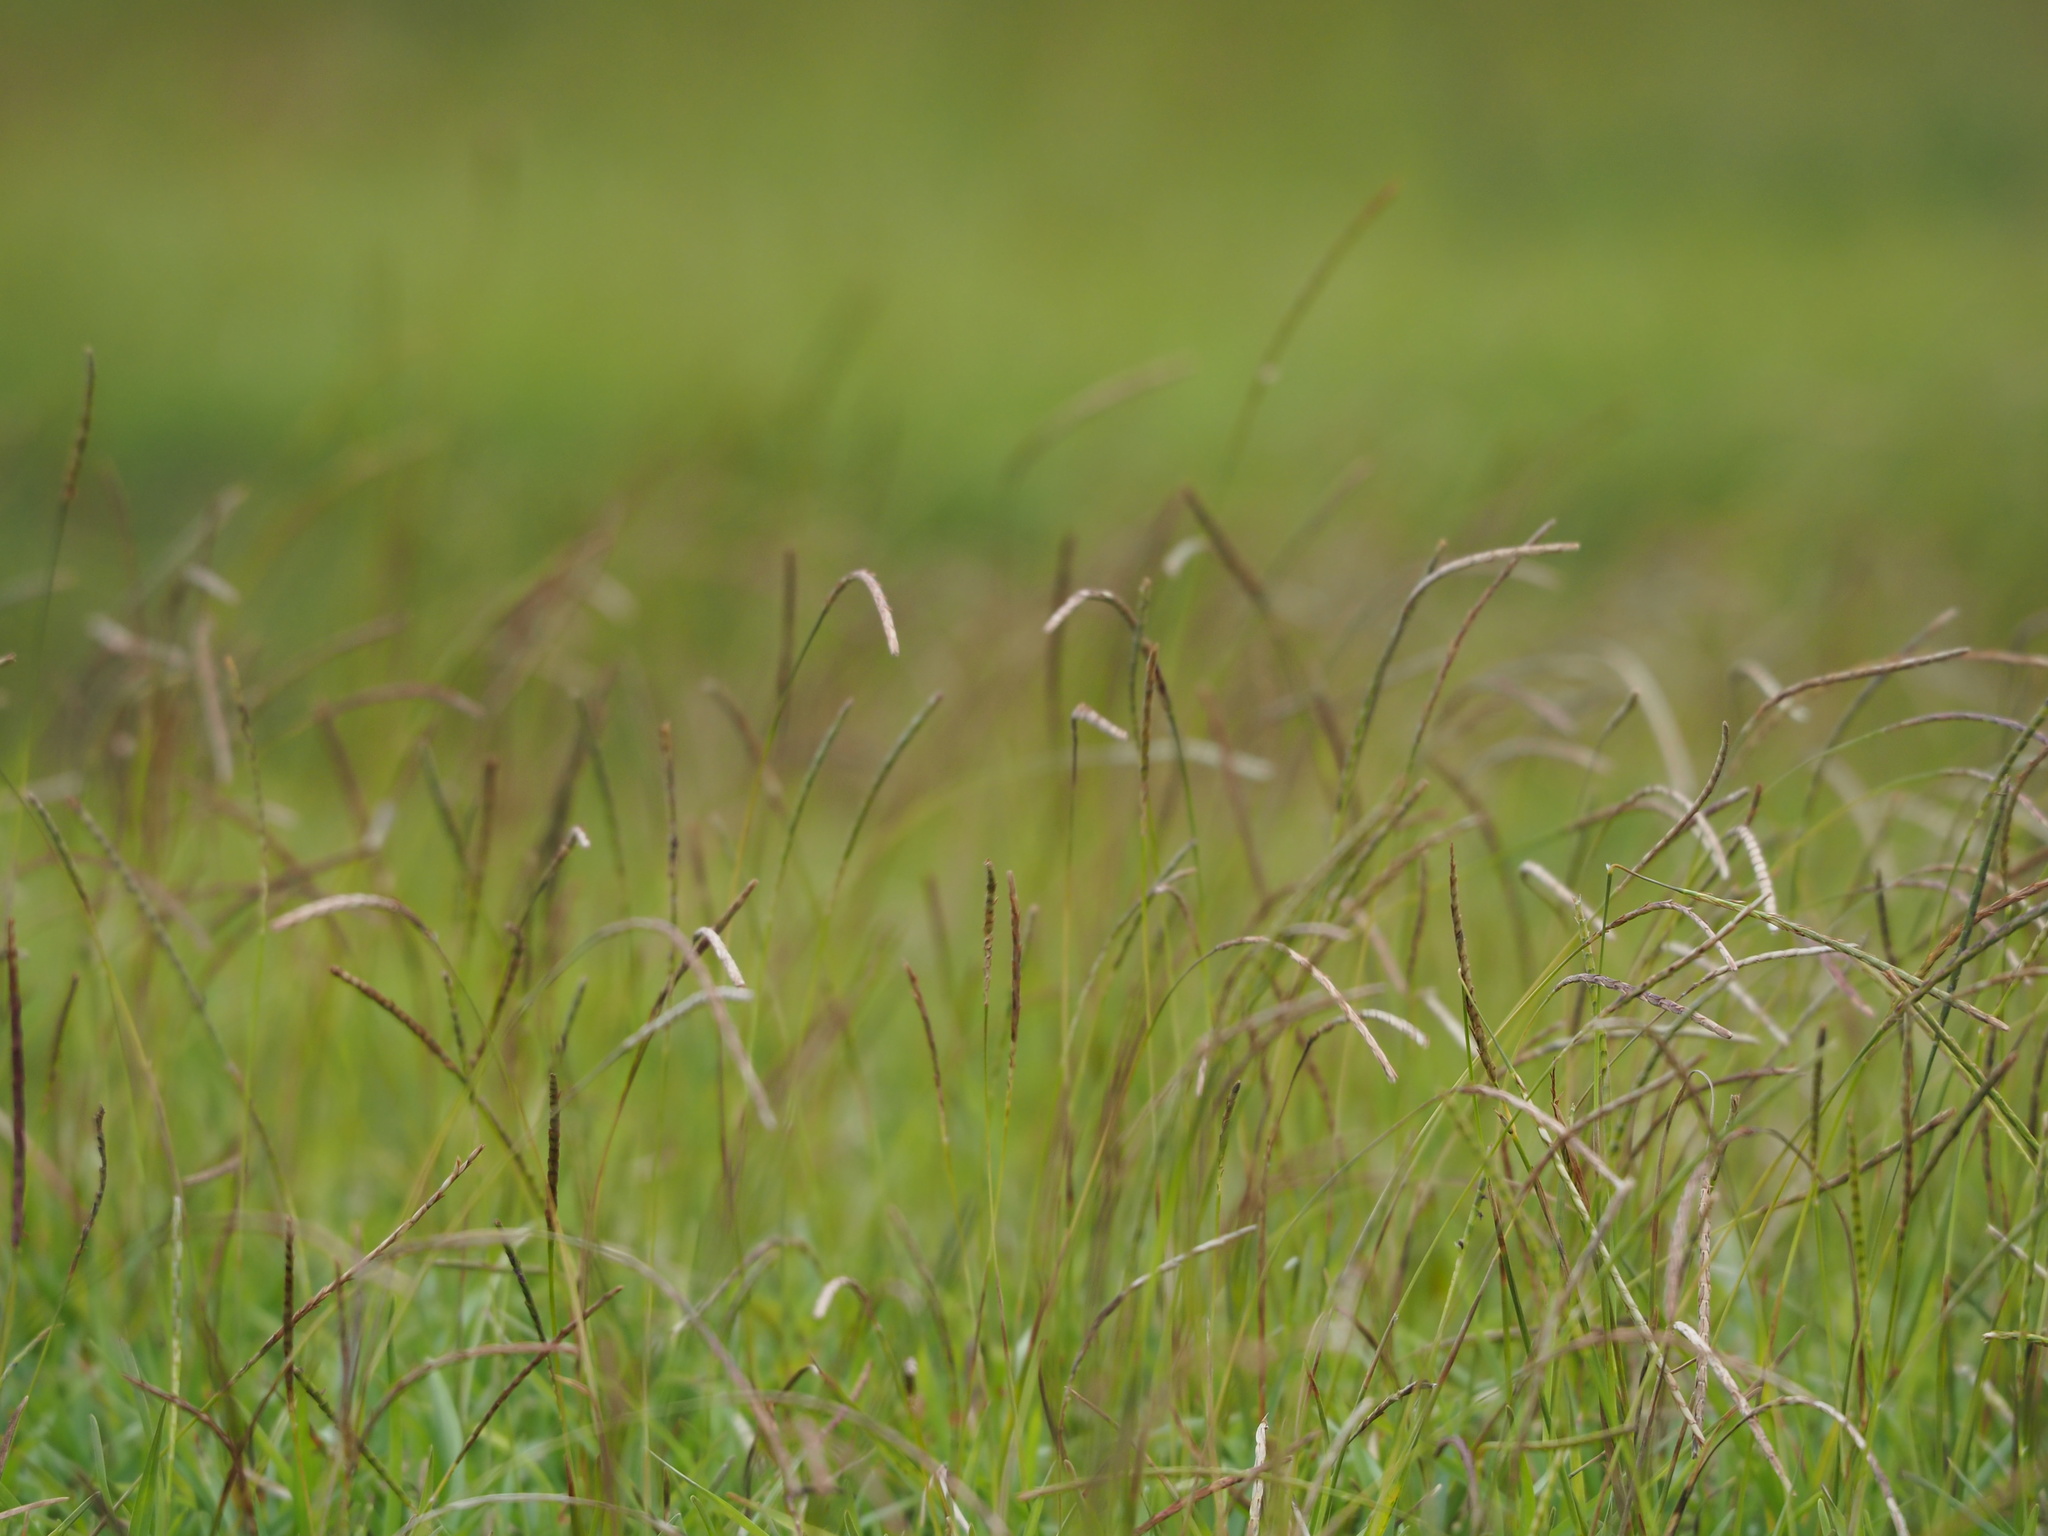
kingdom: Plantae
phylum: Tracheophyta
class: Liliopsida
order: Poales
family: Poaceae
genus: Eremochloa
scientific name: Eremochloa ophiuroides
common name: Centipede grass
